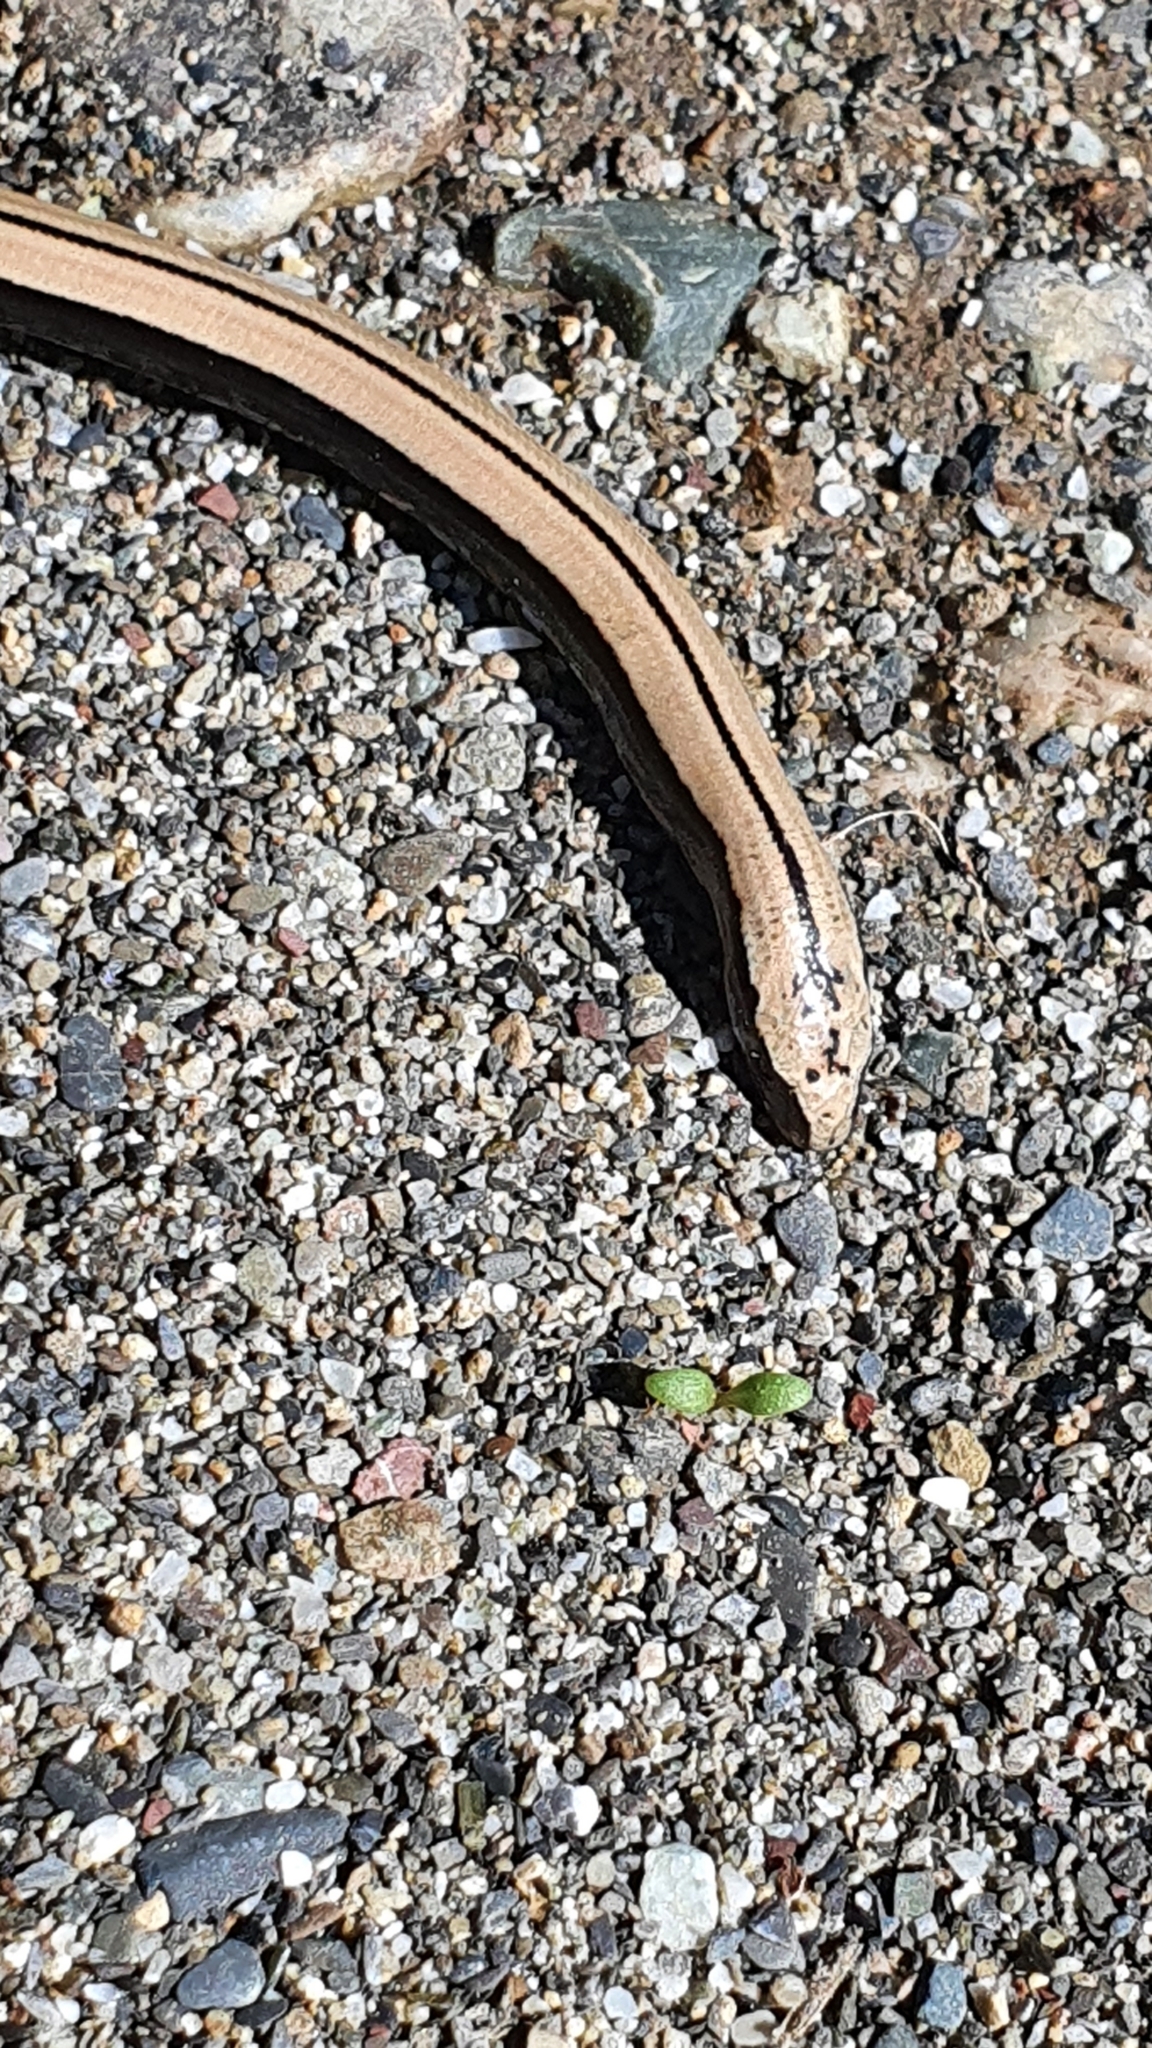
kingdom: Animalia
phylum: Chordata
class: Squamata
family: Anguidae
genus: Anguis
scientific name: Anguis veronensis
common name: Italian slow worm
